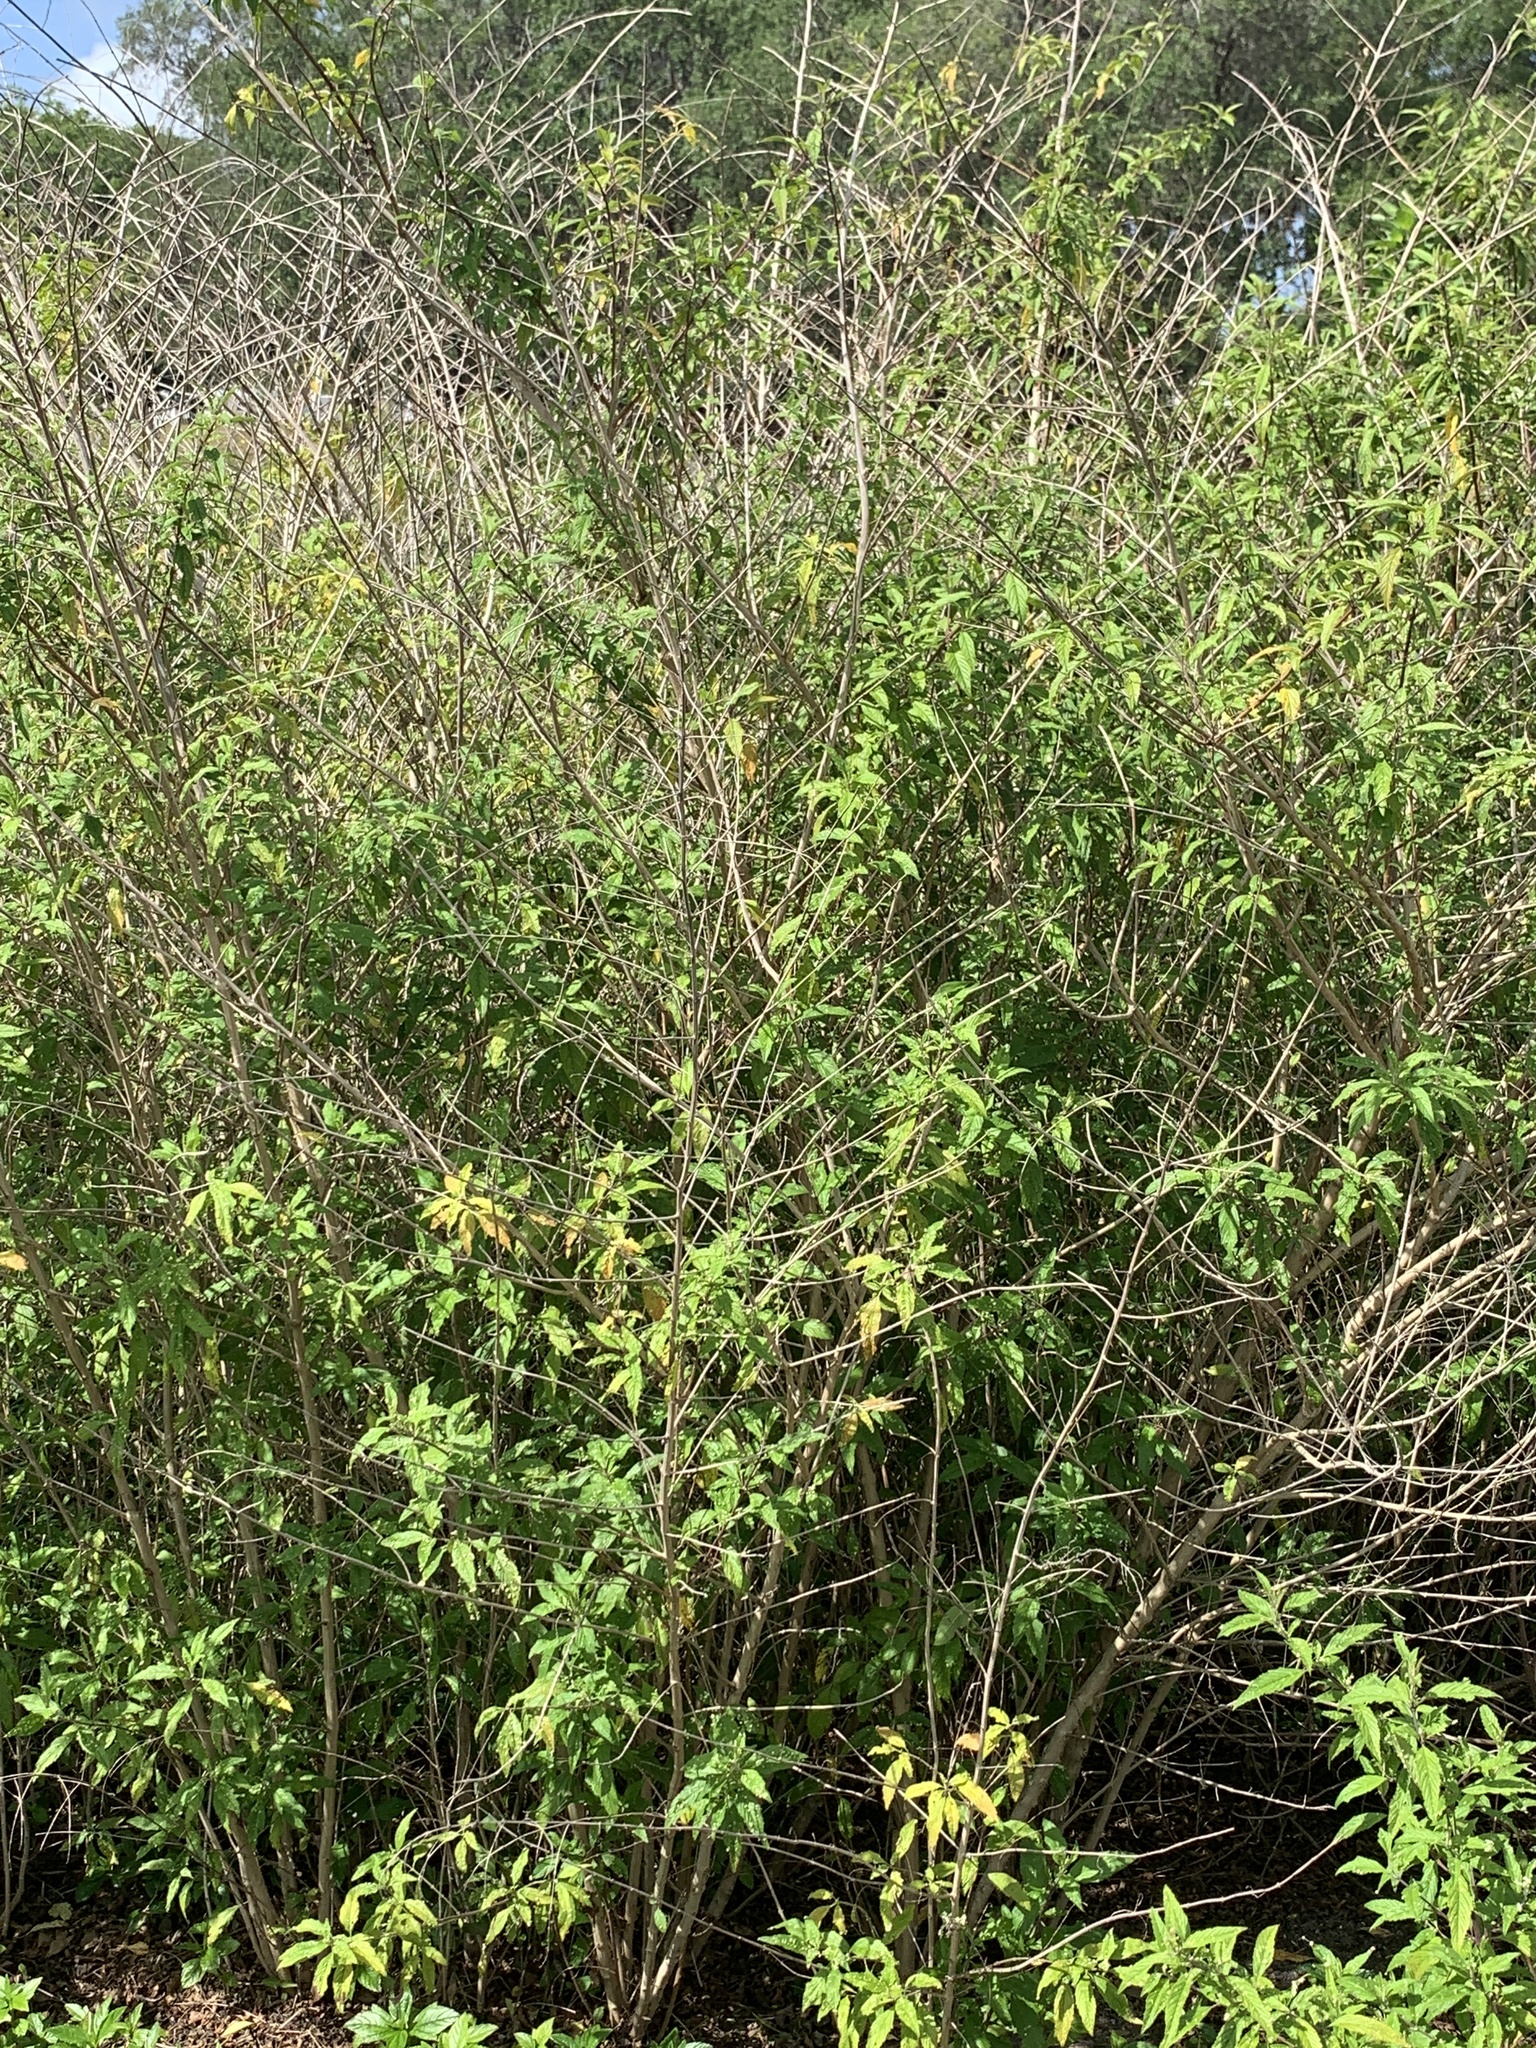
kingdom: Plantae
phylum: Tracheophyta
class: Magnoliopsida
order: Lamiales
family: Lamiaceae
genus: Condea
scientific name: Condea verticillata
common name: John charles
